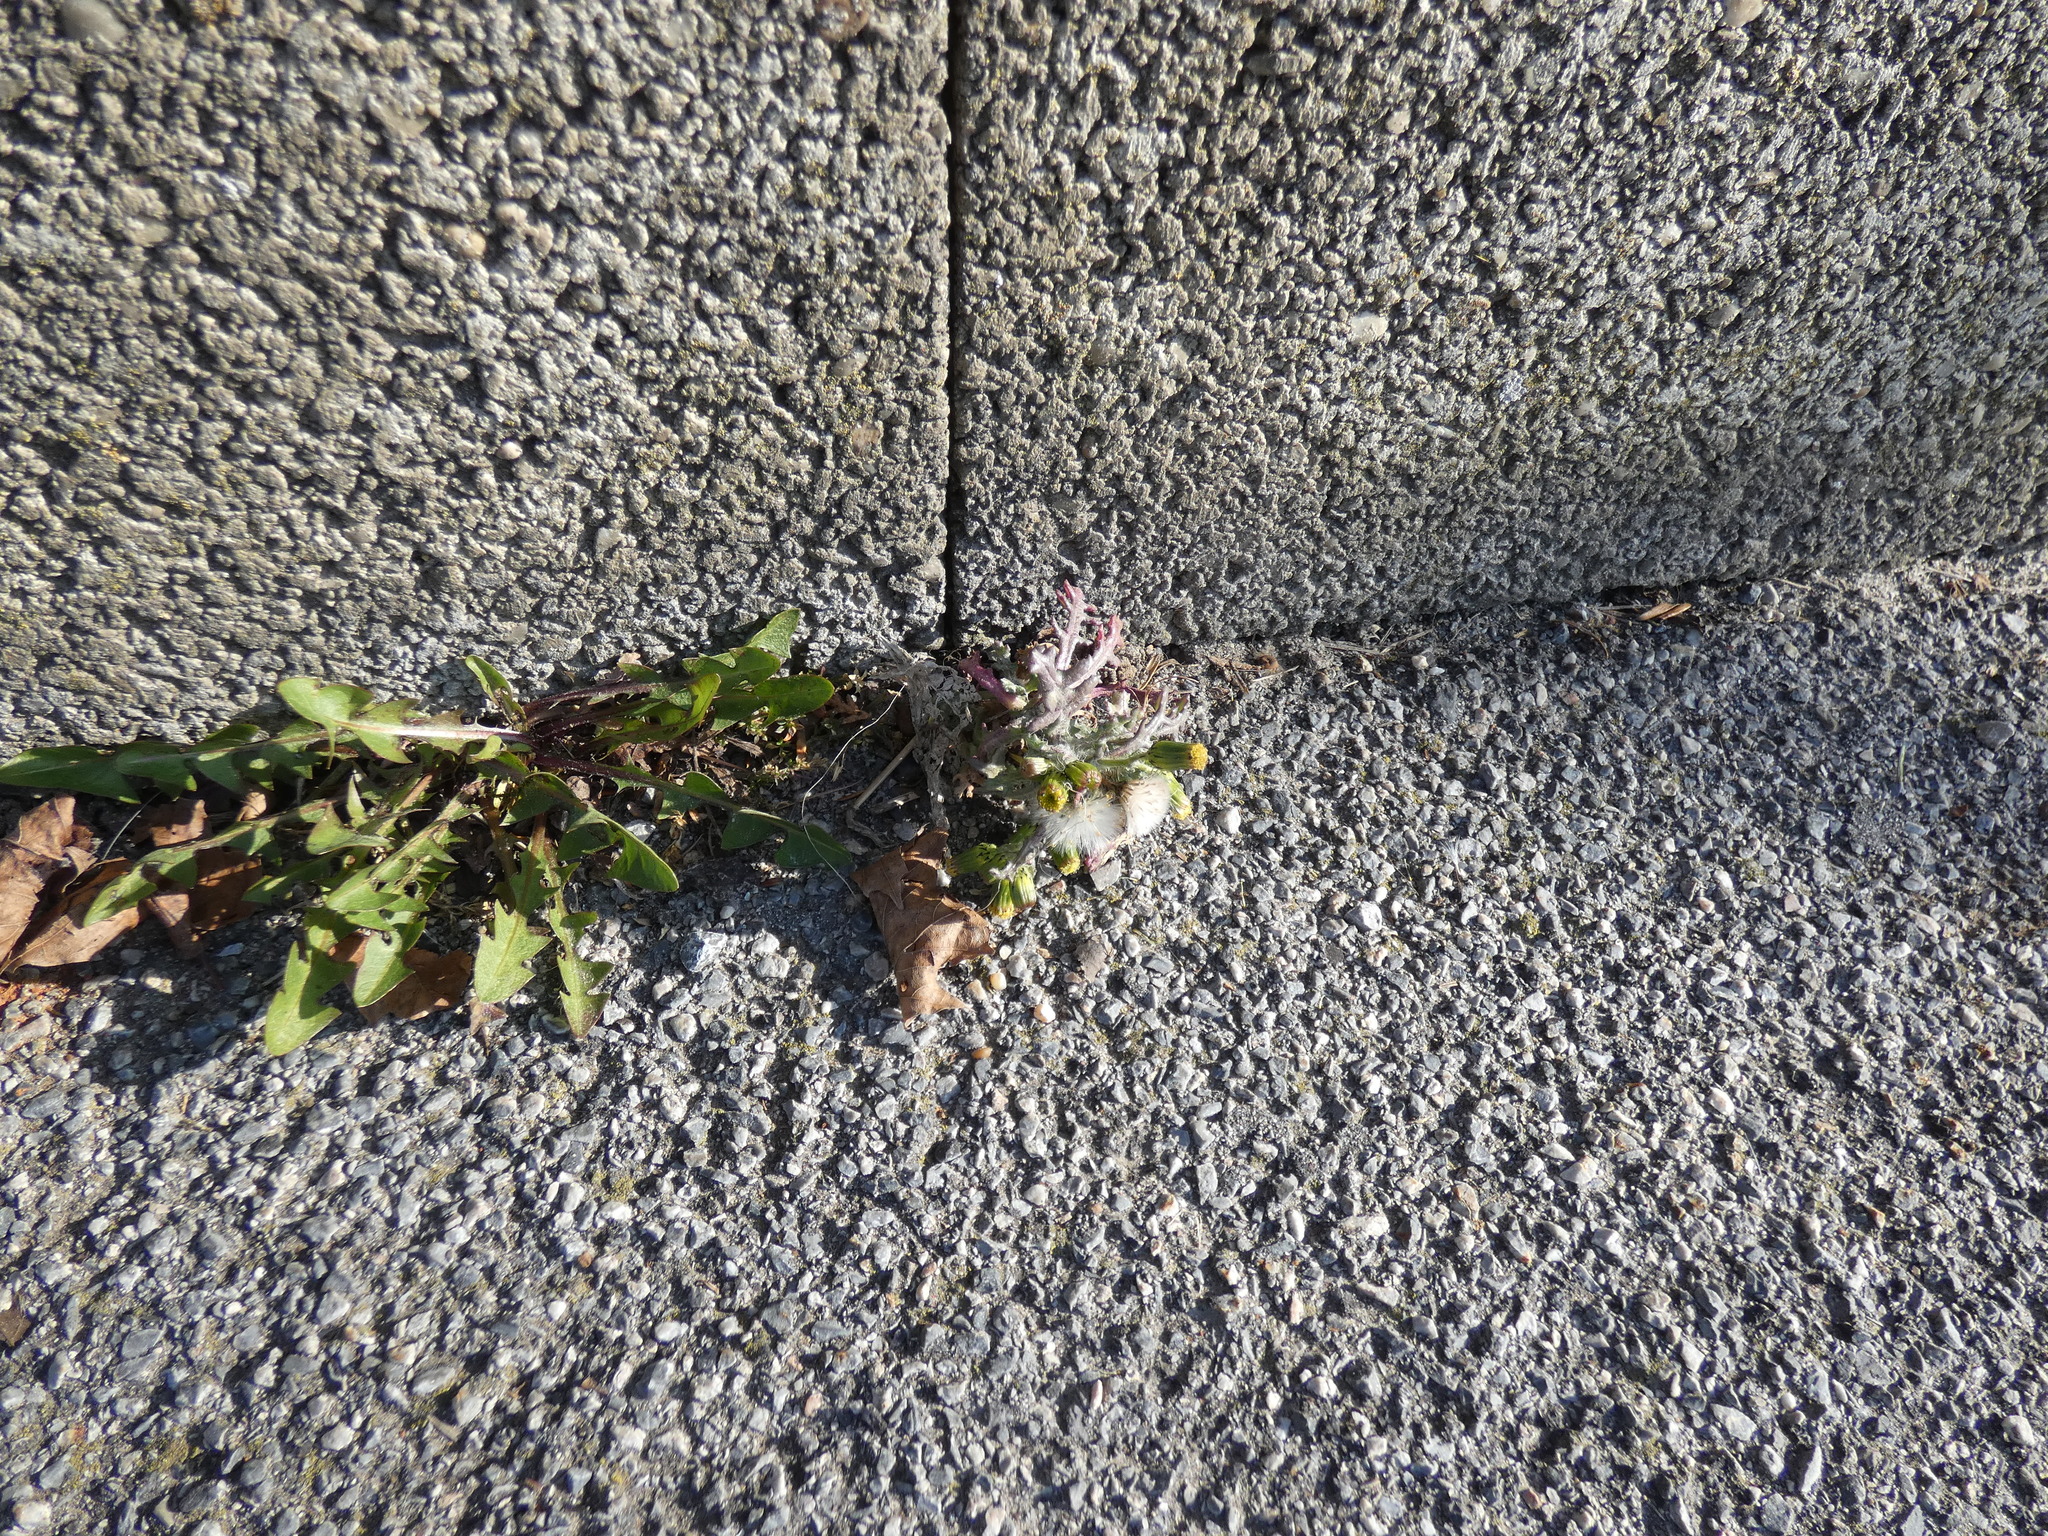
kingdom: Plantae
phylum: Tracheophyta
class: Magnoliopsida
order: Asterales
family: Asteraceae
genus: Senecio
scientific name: Senecio vulgaris
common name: Old-man-in-the-spring
